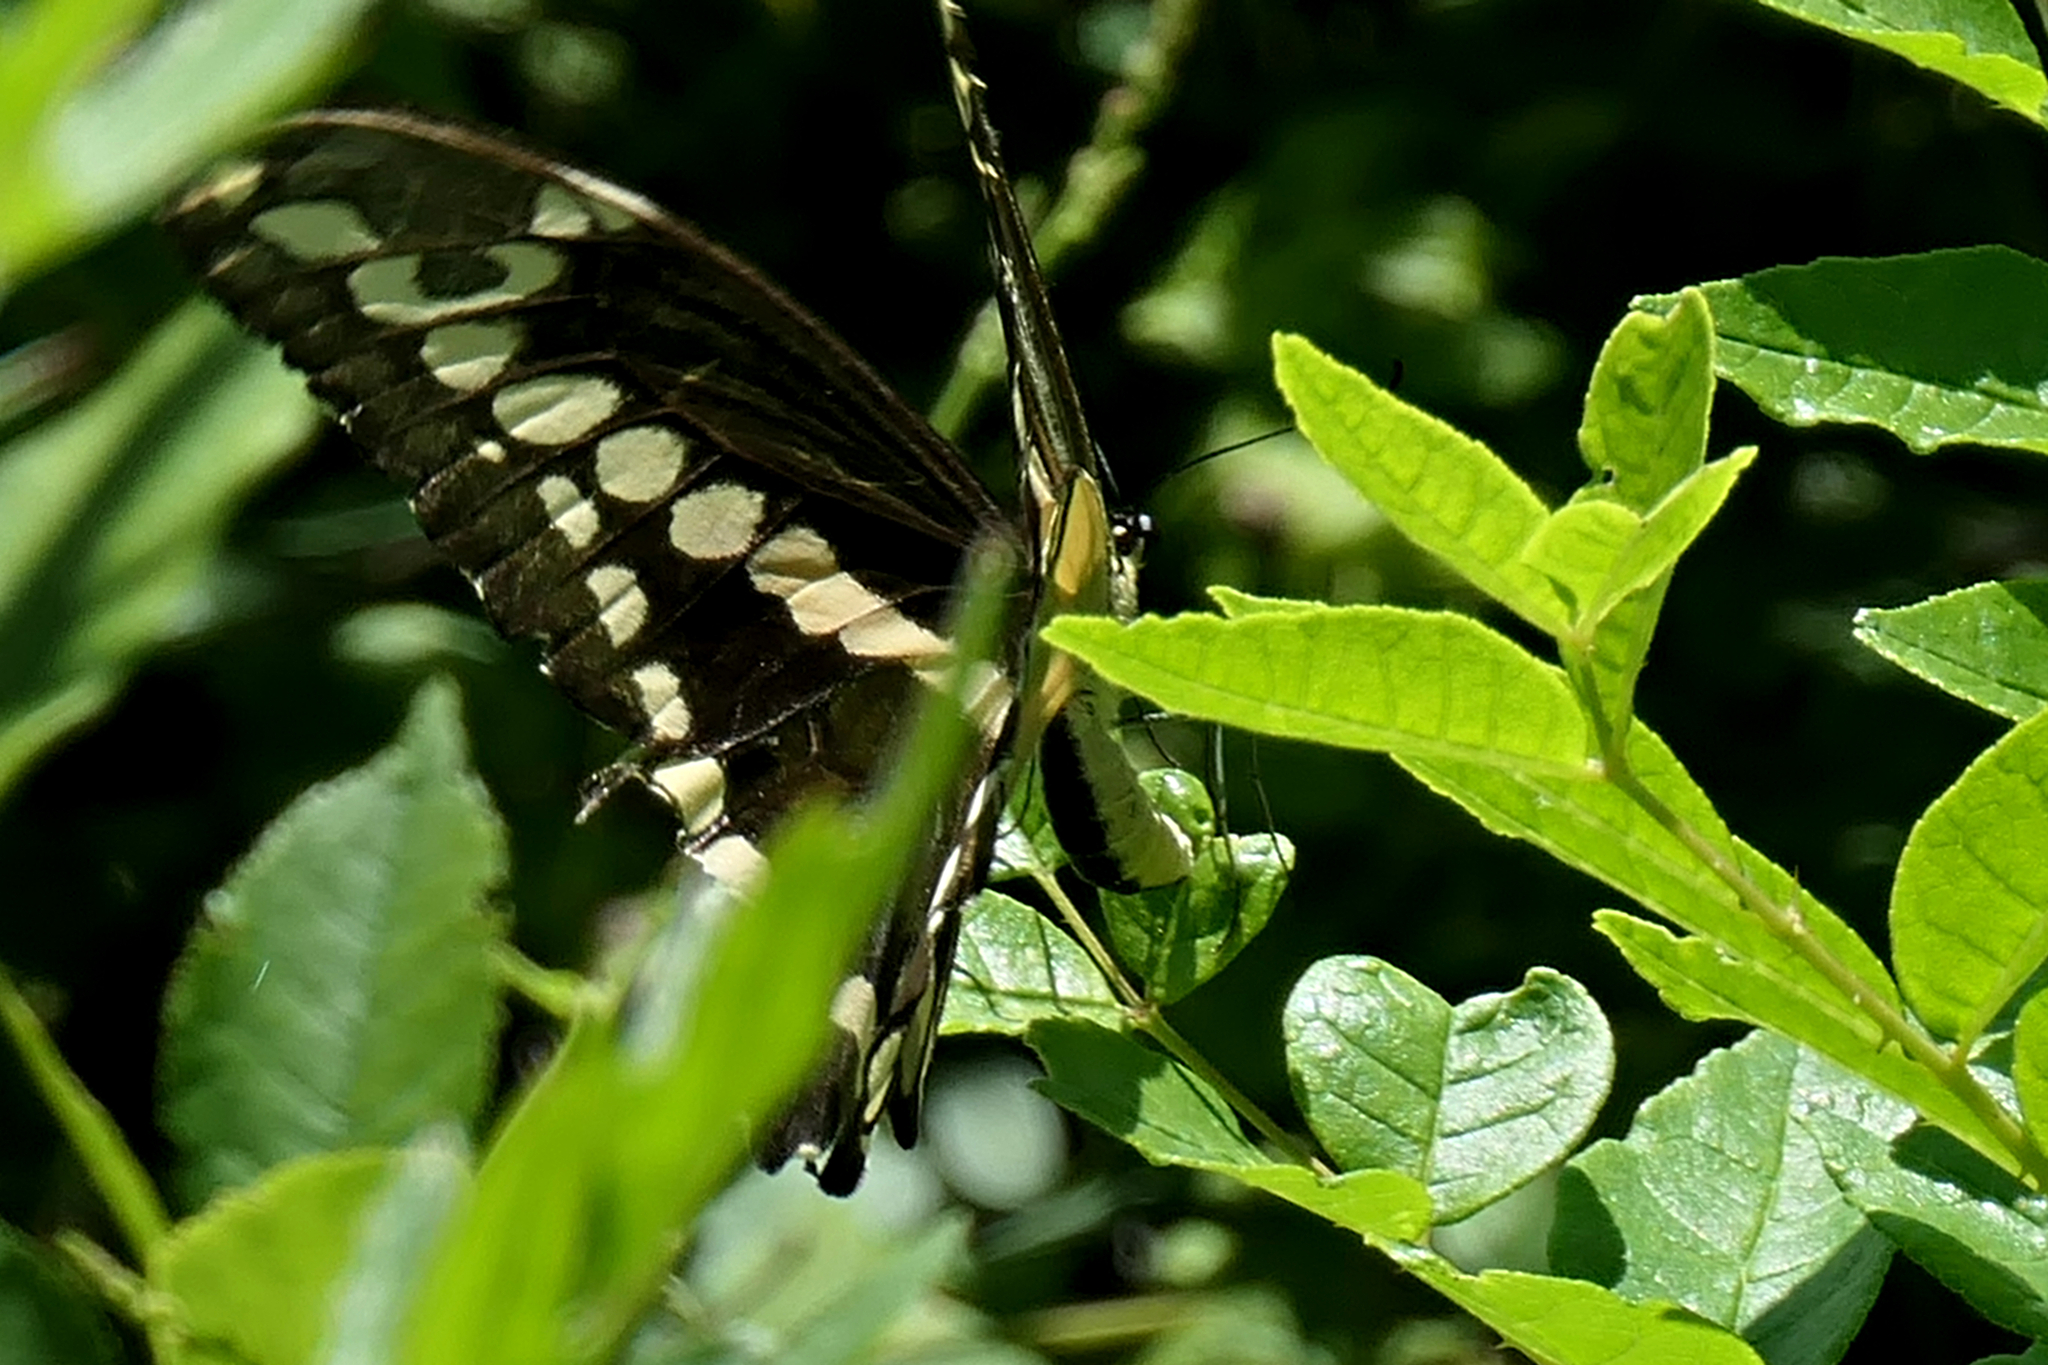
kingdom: Animalia
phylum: Arthropoda
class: Insecta
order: Lepidoptera
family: Papilionidae
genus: Papilio
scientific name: Papilio cresphontes
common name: Giant swallowtail
